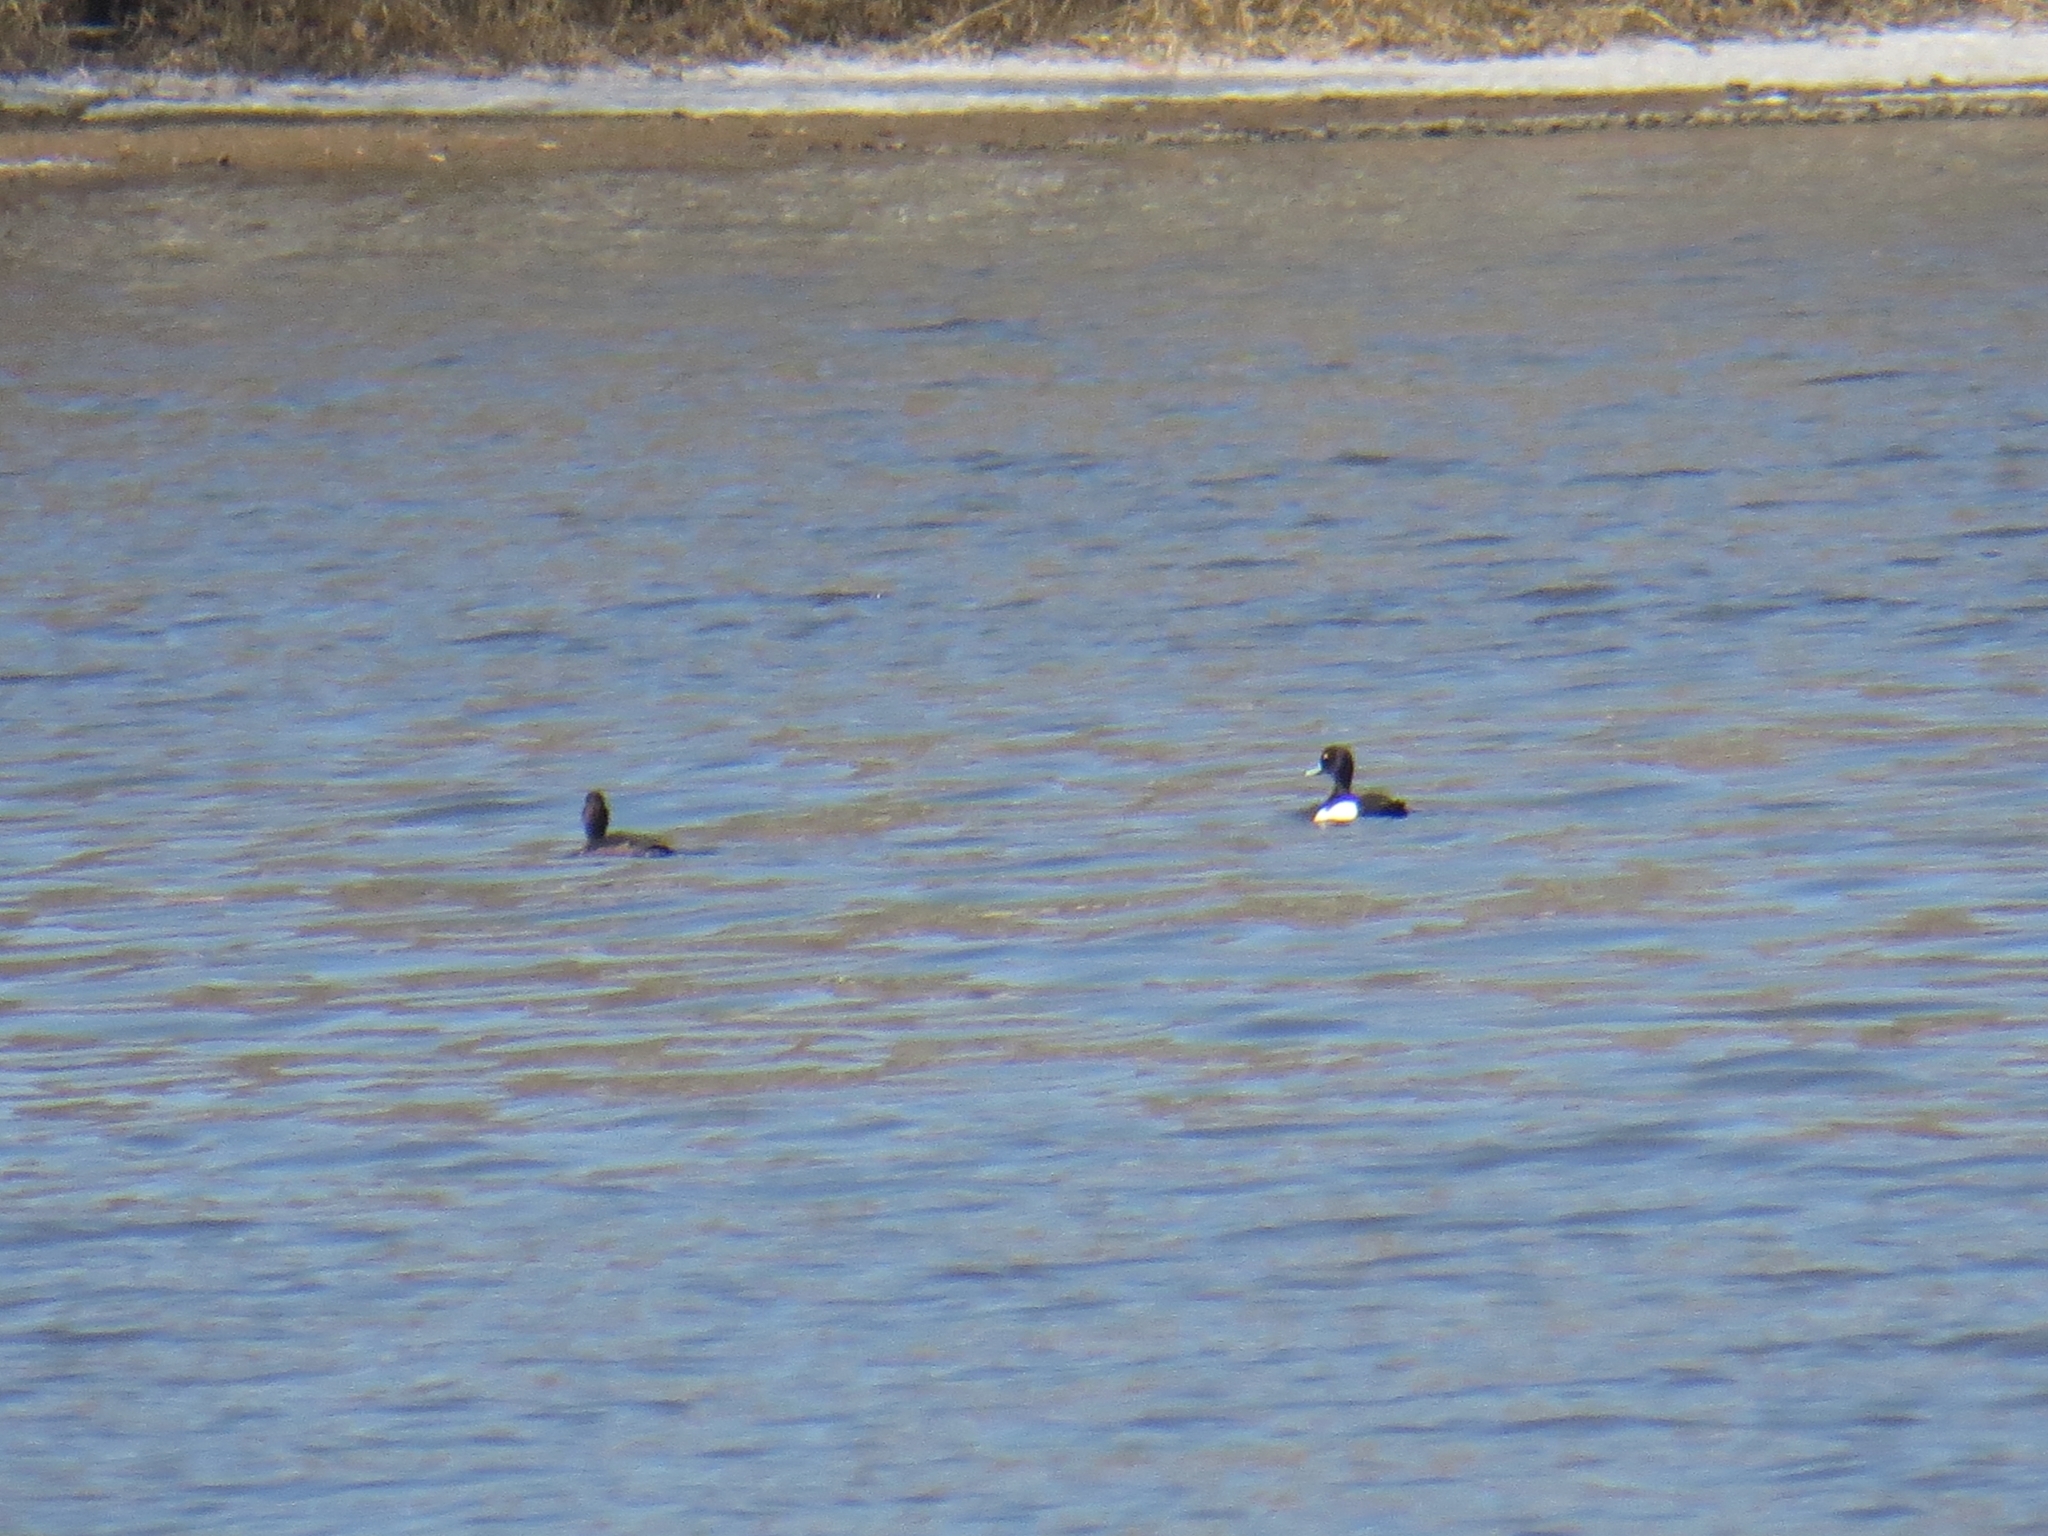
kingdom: Animalia
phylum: Chordata
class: Aves
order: Anseriformes
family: Anatidae
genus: Aythya
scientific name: Aythya fuligula
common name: Tufted duck
